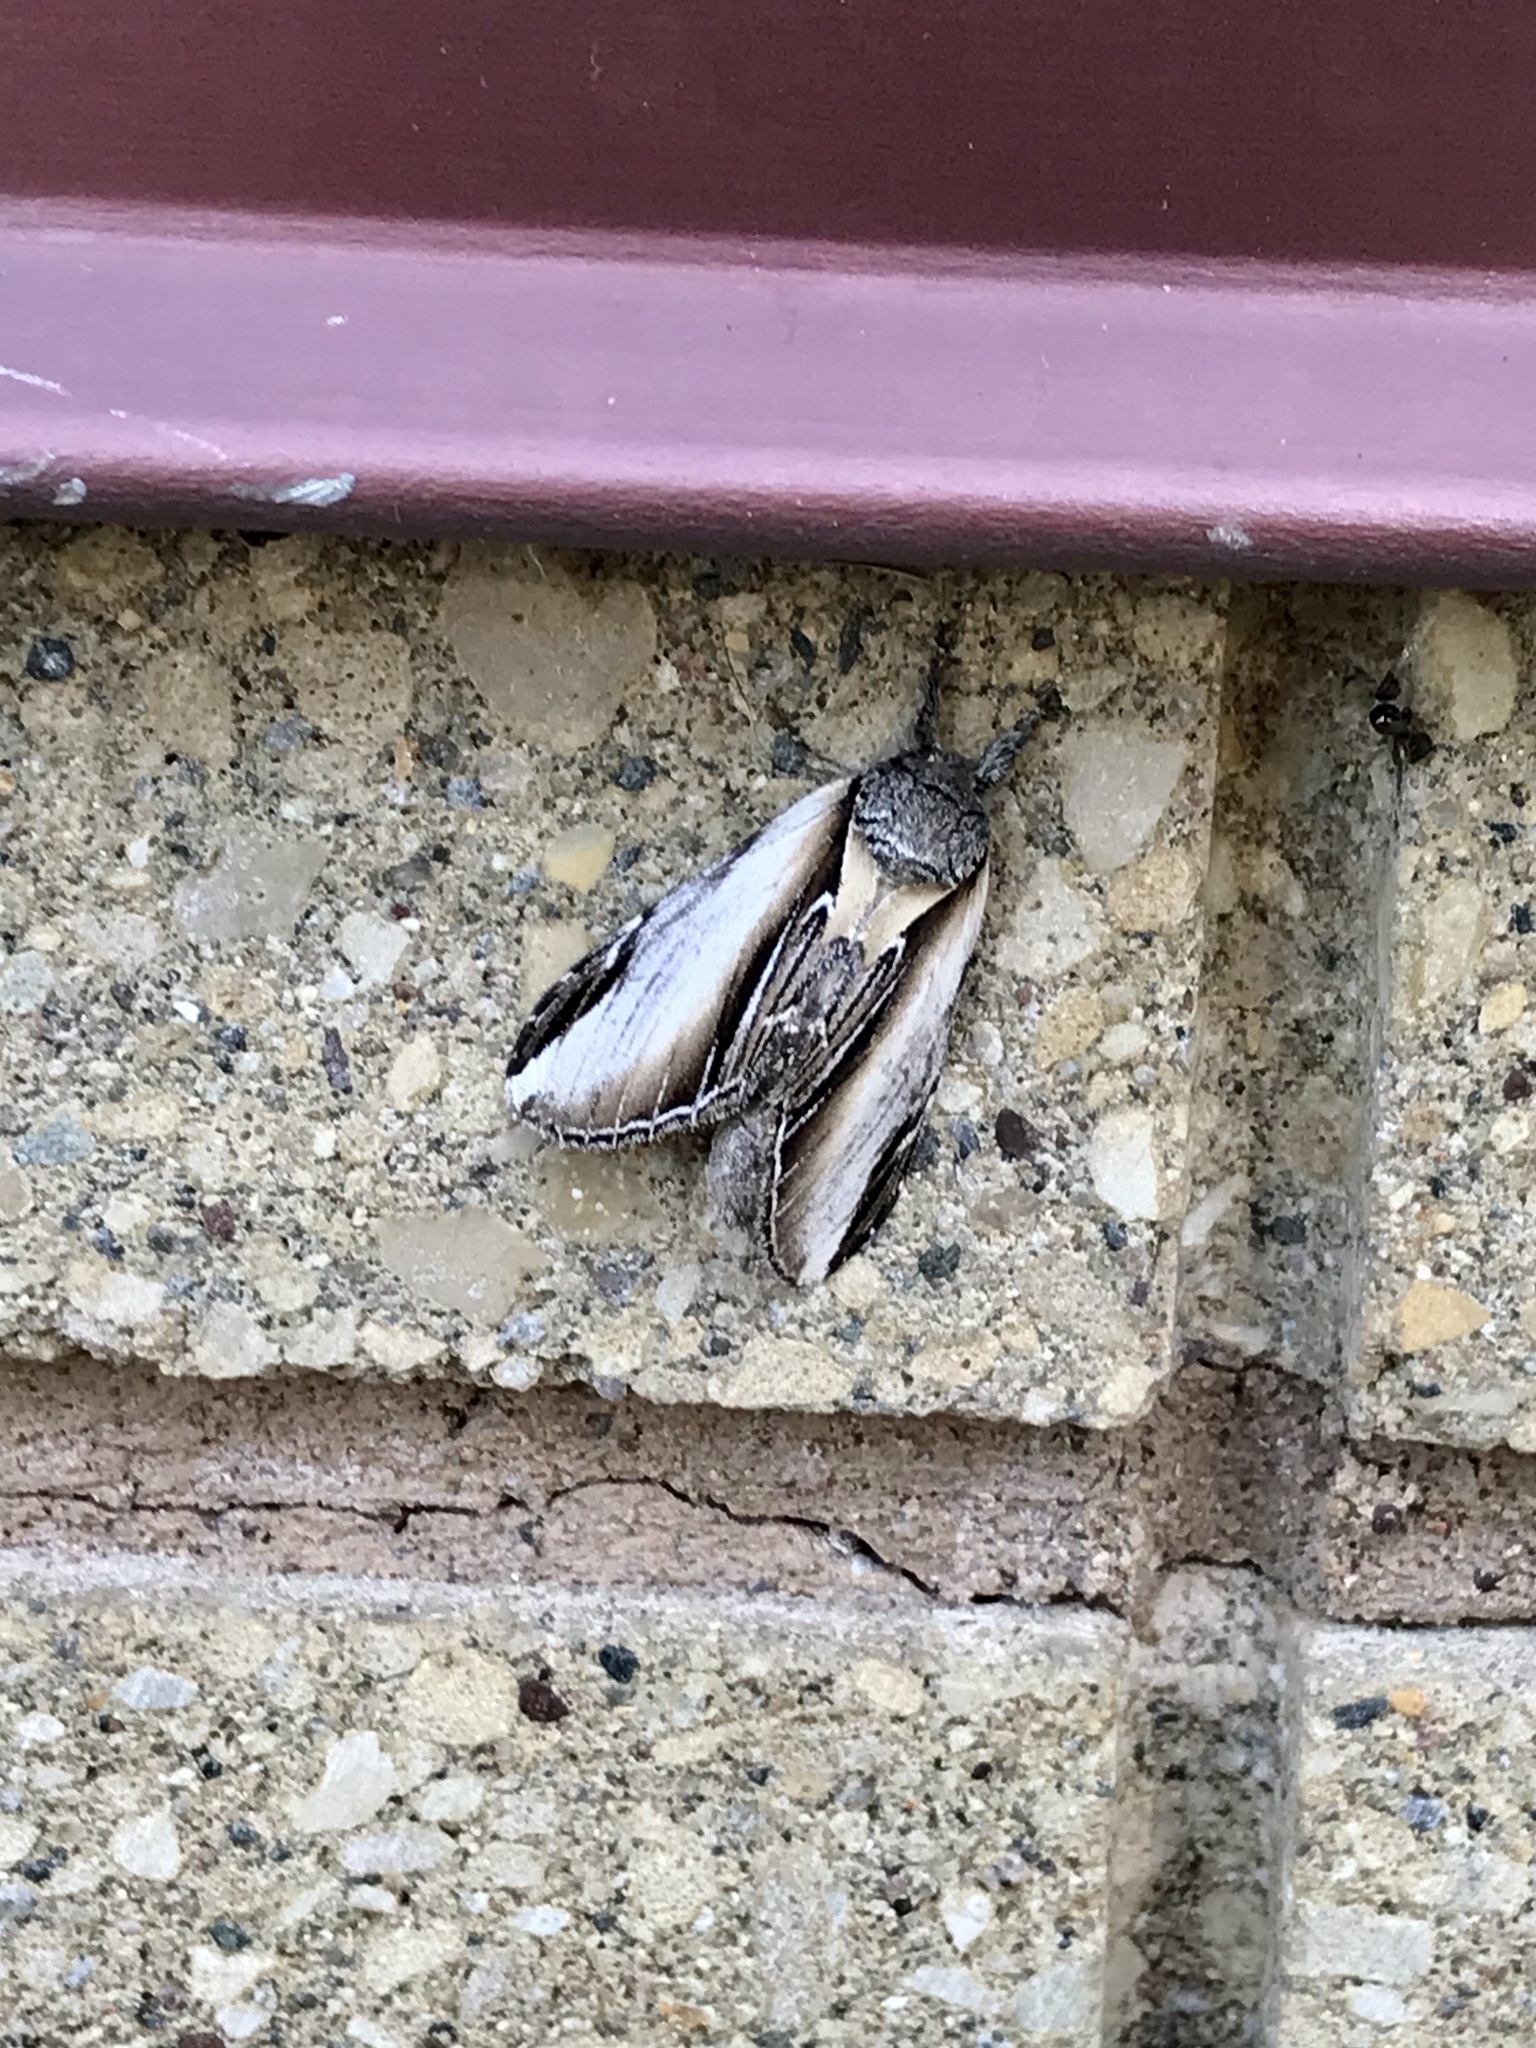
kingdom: Animalia
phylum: Arthropoda
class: Insecta
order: Lepidoptera
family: Notodontidae
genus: Pheosia
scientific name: Pheosia rimosa
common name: Black-rimmed prominent
